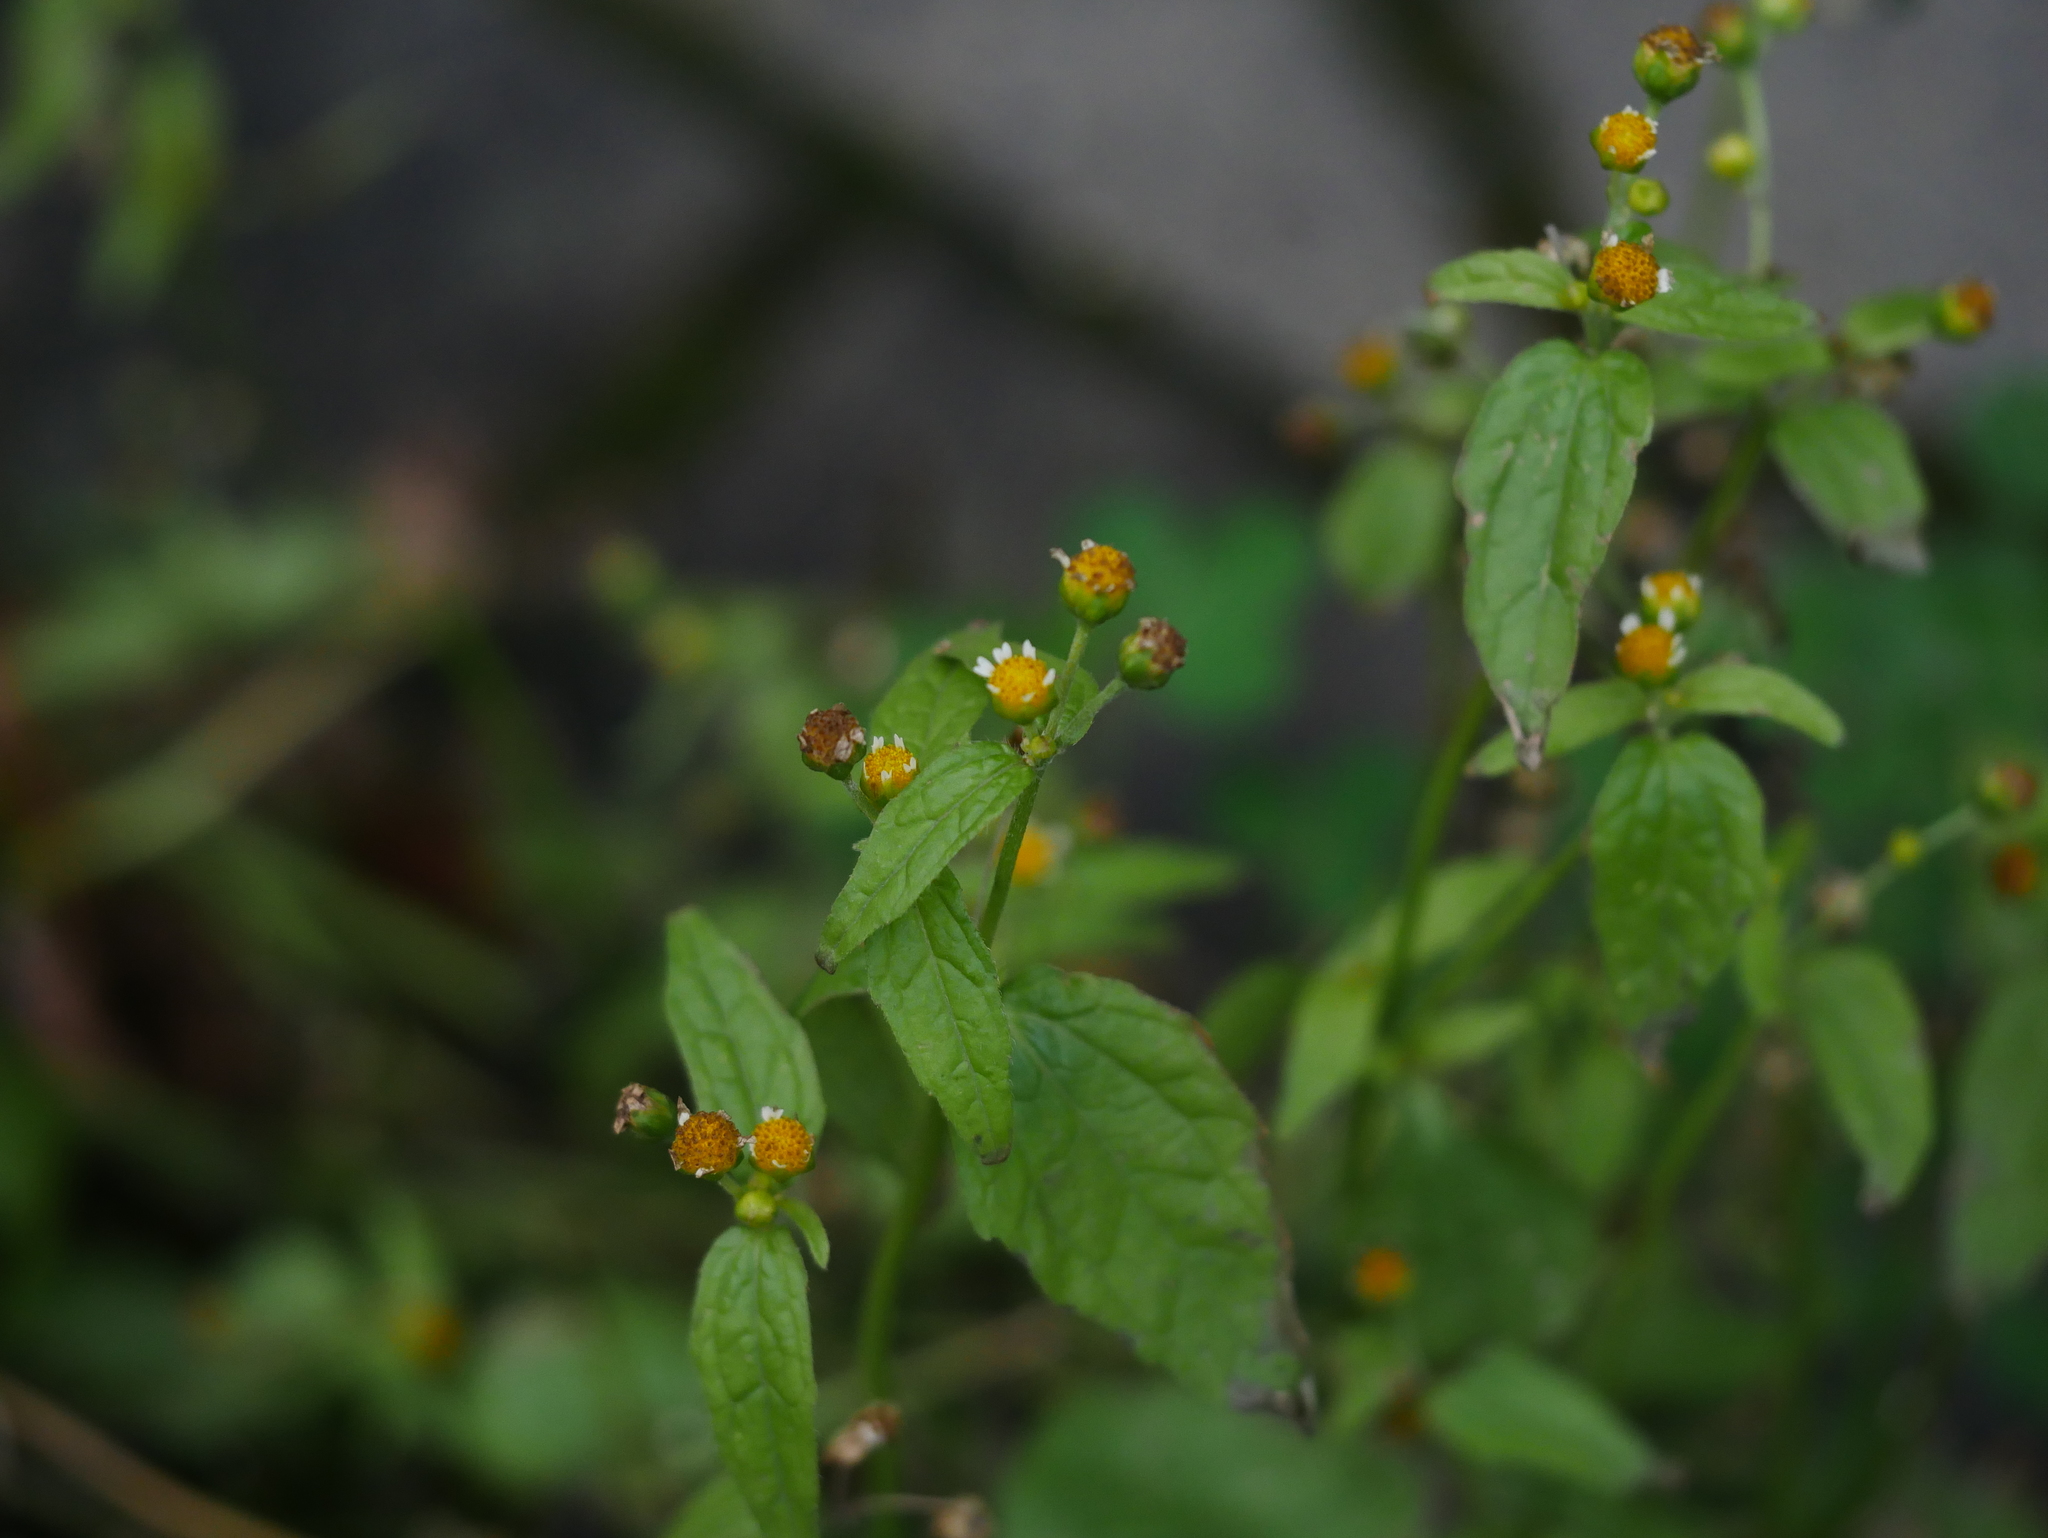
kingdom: Plantae
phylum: Tracheophyta
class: Magnoliopsida
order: Asterales
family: Asteraceae
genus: Galinsoga
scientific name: Galinsoga parviflora
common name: Gallant soldier
